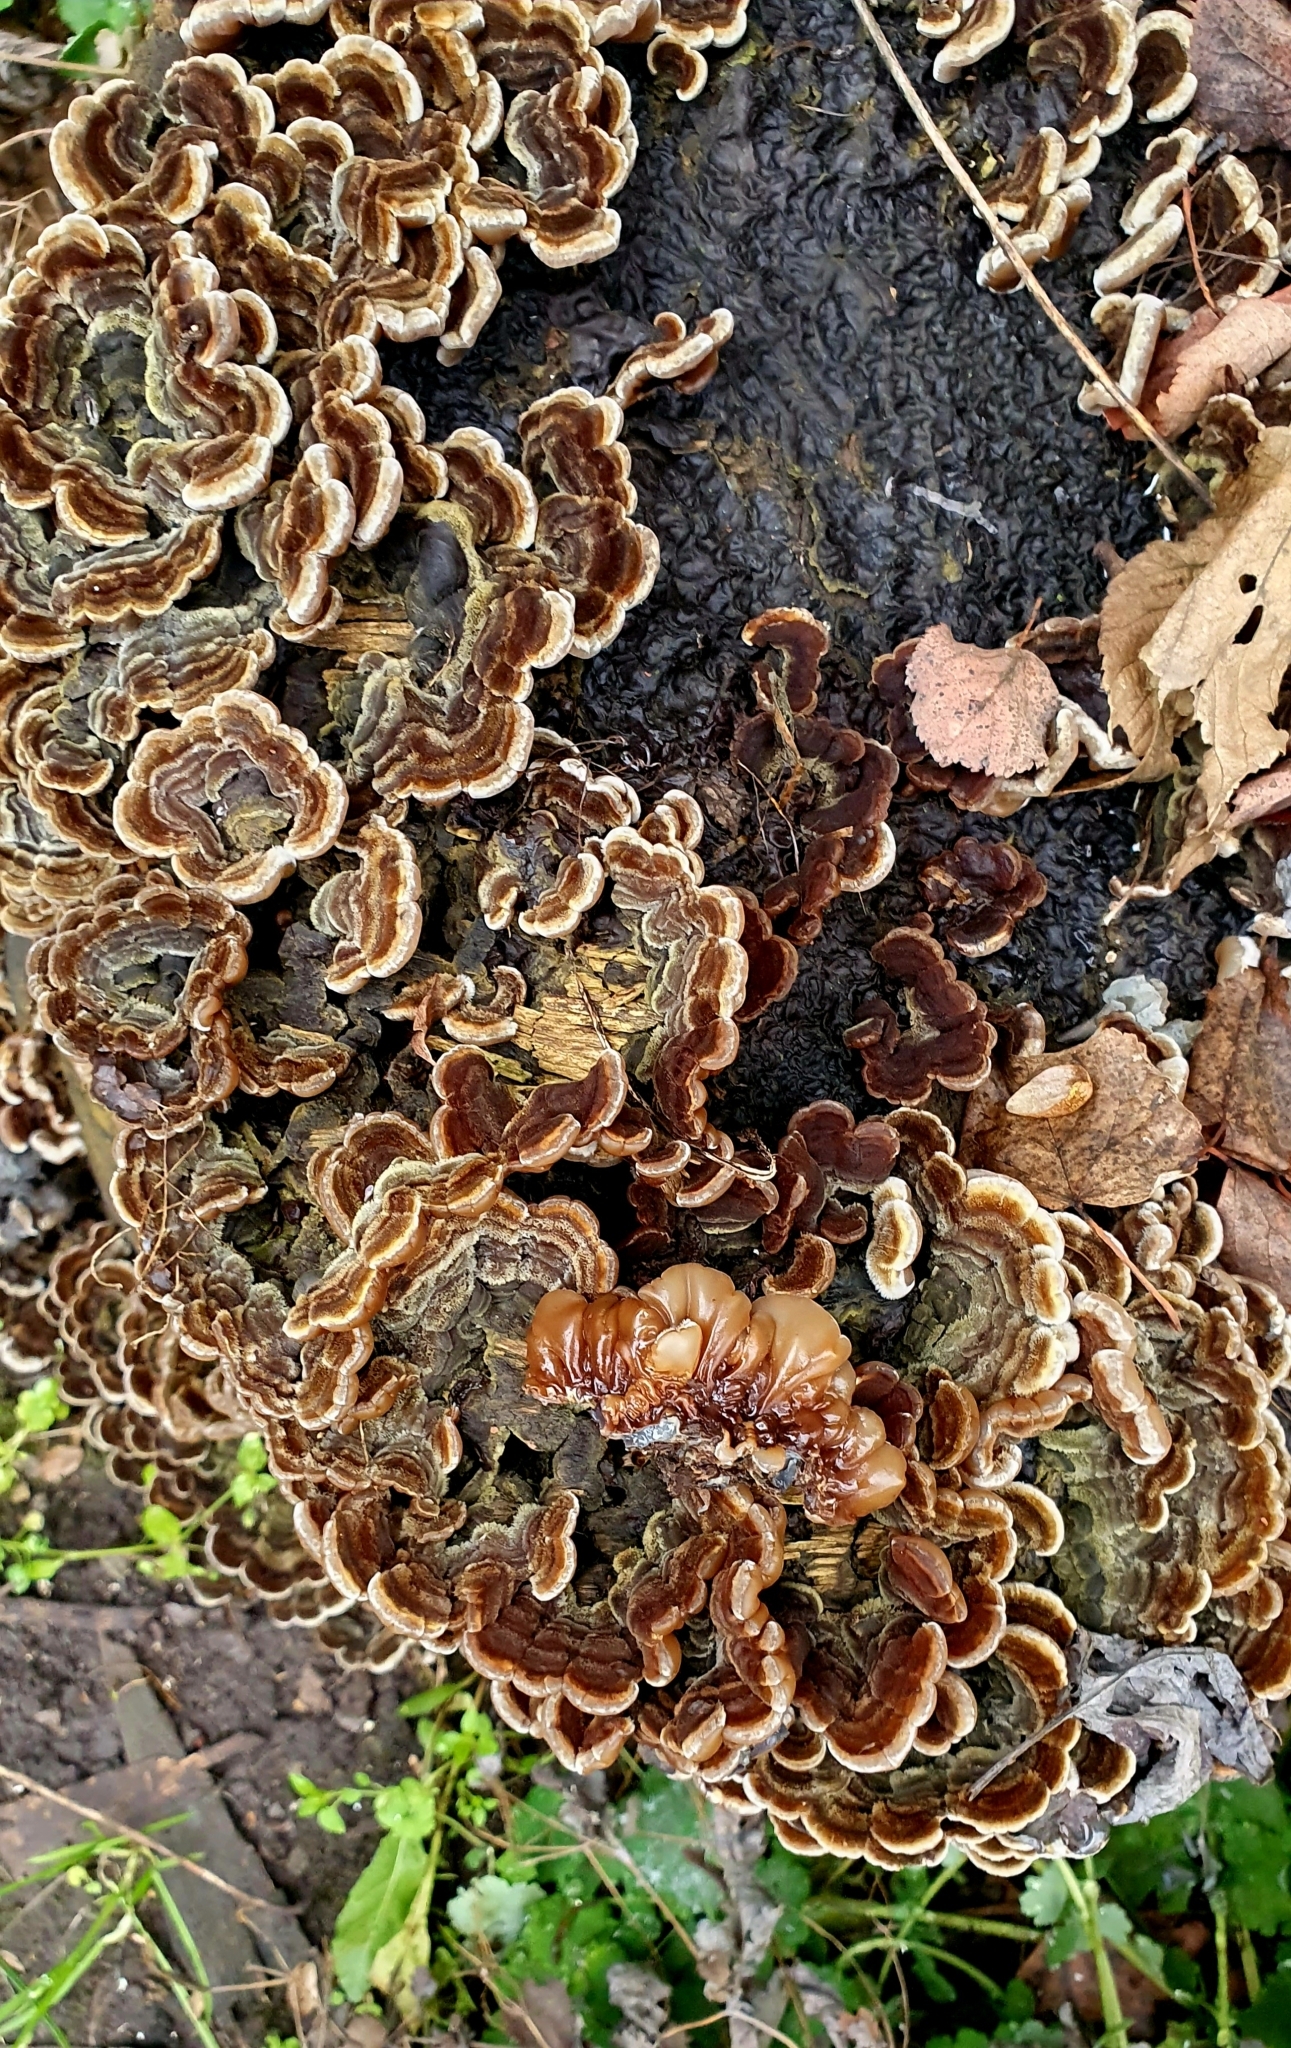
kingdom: Fungi
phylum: Basidiomycota
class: Agaricomycetes
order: Auriculariales
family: Auriculariaceae
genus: Auricularia
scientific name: Auricularia mesenterica
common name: Tripe fungus
